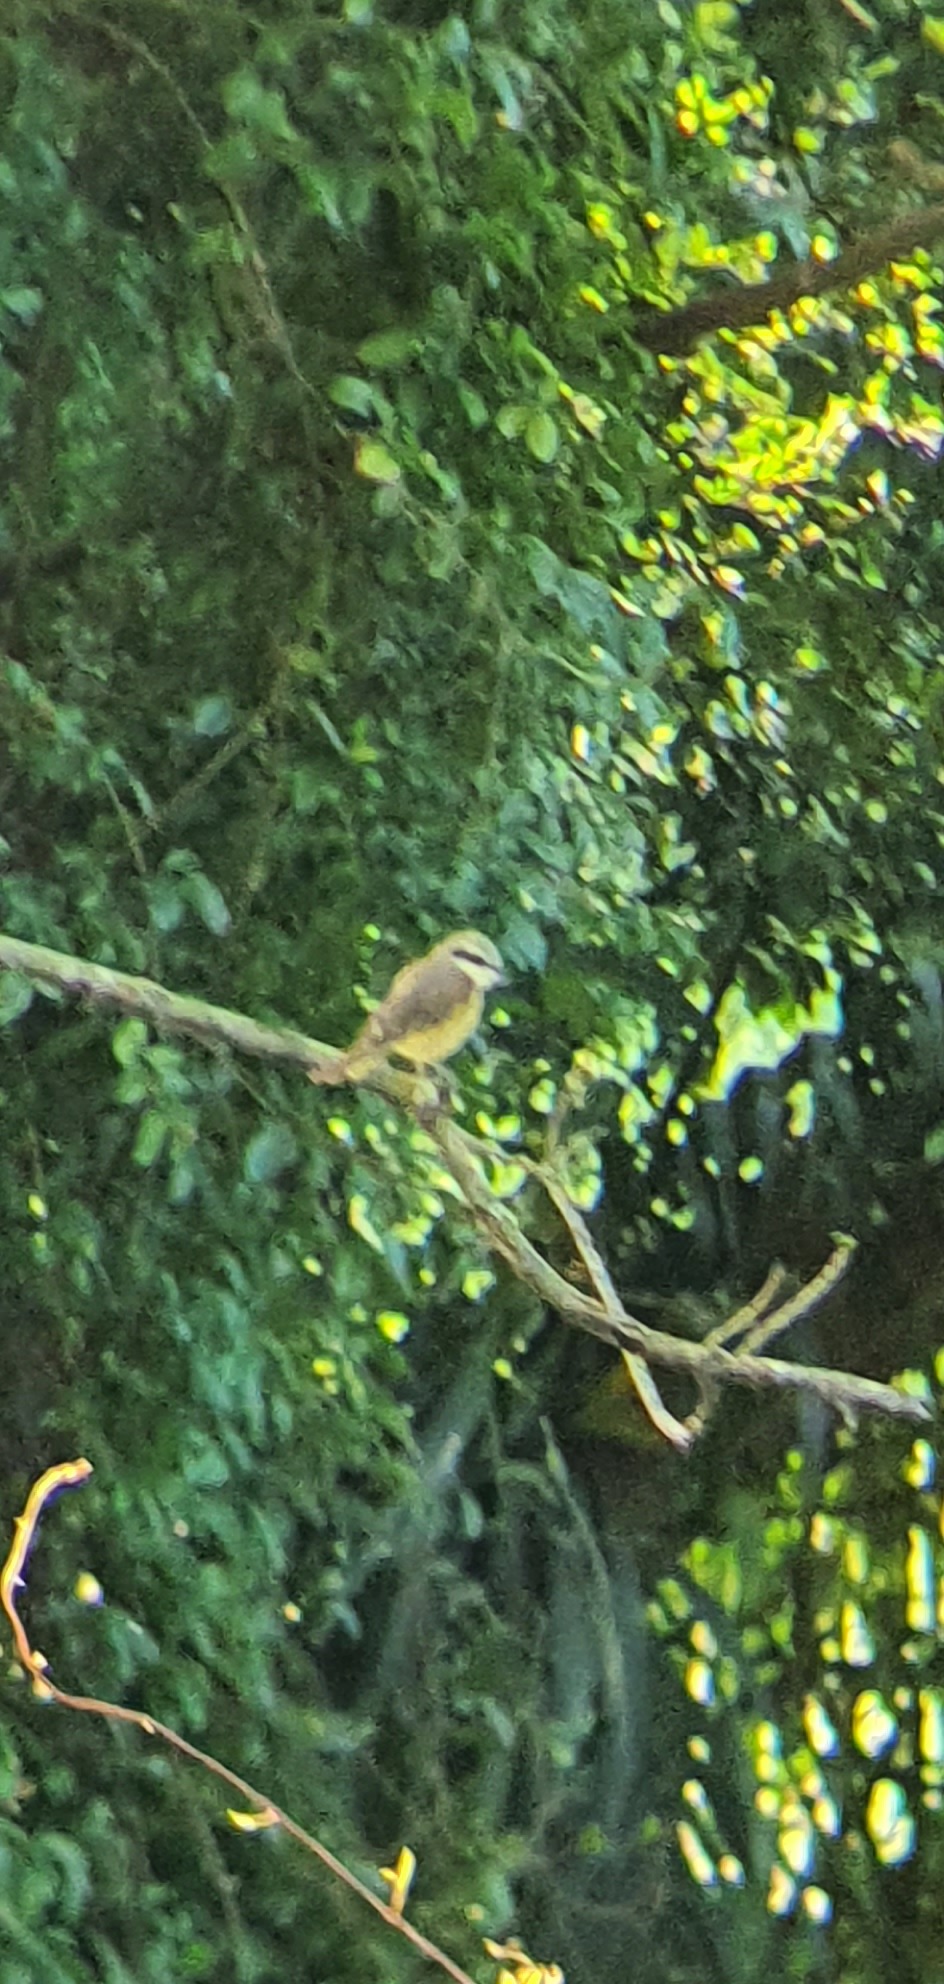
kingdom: Animalia
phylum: Chordata
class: Aves
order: Passeriformes
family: Laniidae
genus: Lanius
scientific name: Lanius cristatus
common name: Brown shrike
